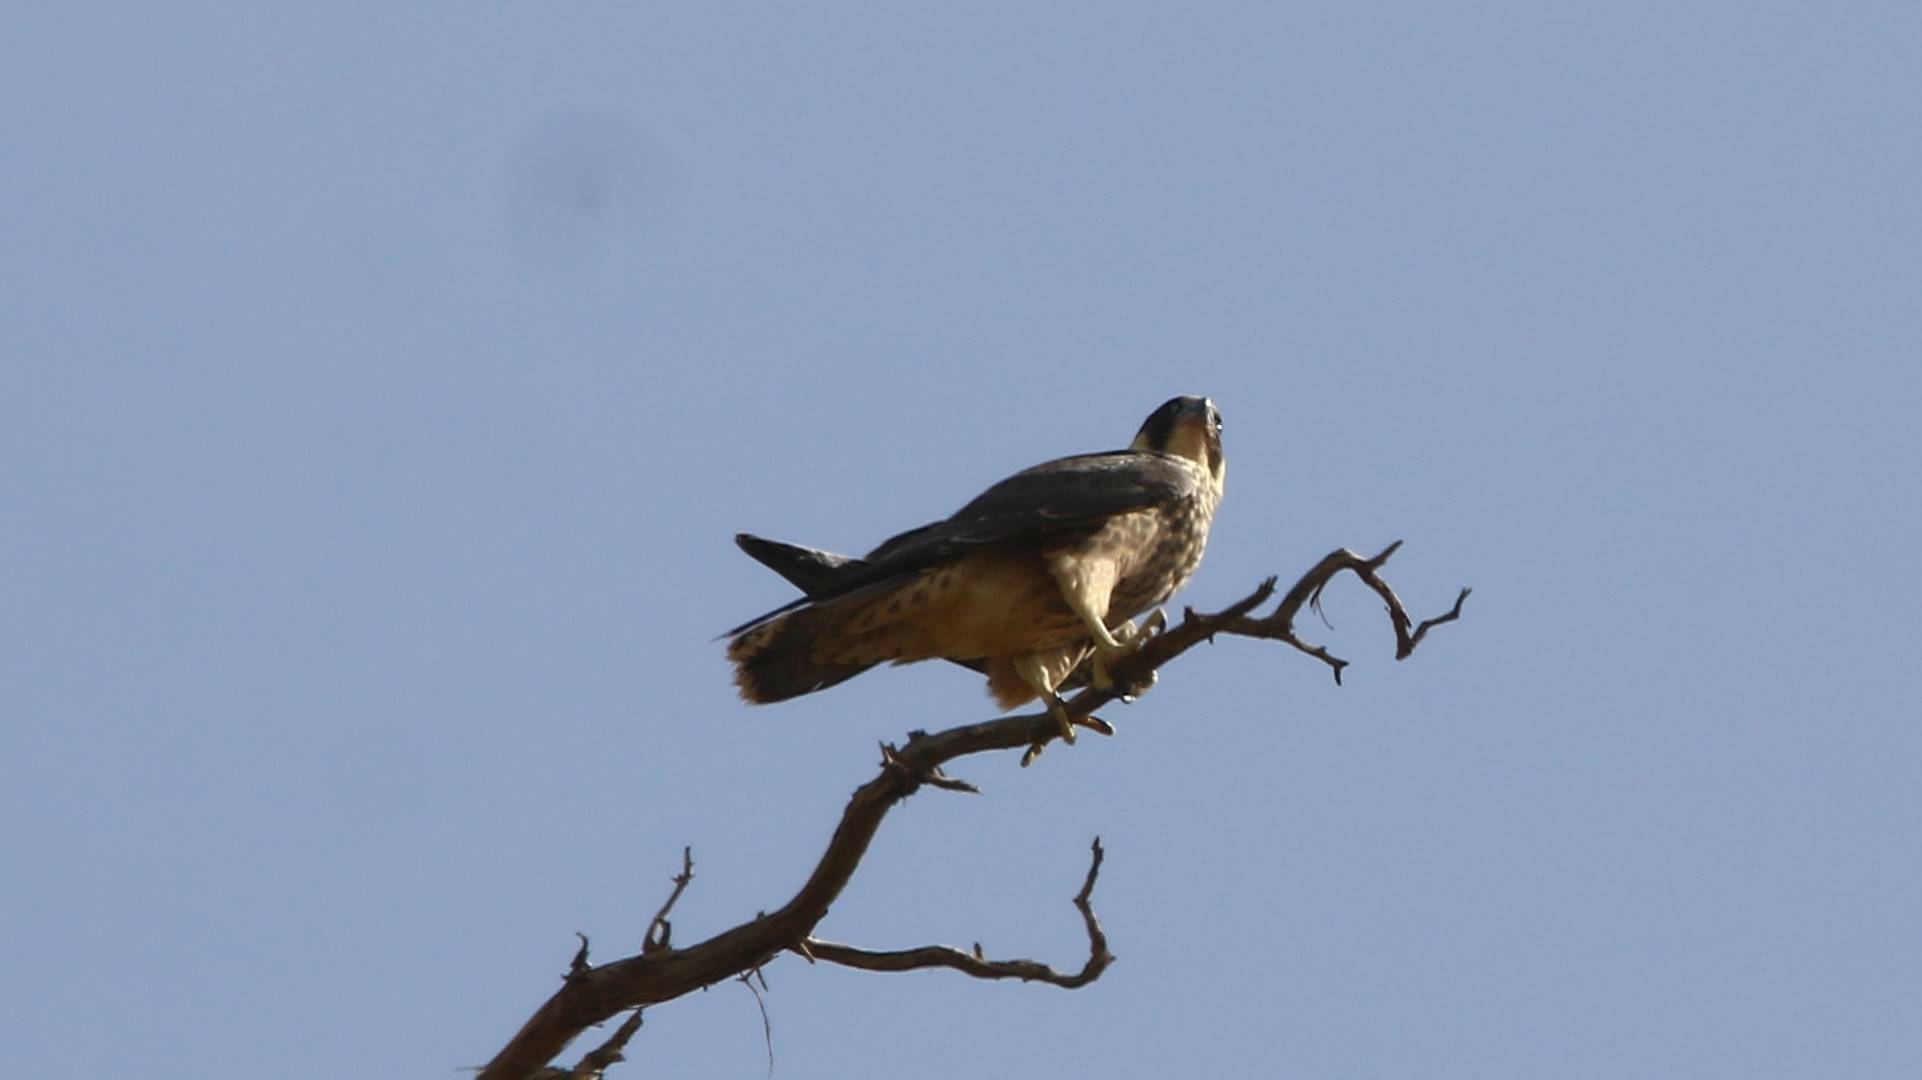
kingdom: Animalia
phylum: Chordata
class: Aves
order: Falconiformes
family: Falconidae
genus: Falco
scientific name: Falco peregrinus
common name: Peregrine falcon
